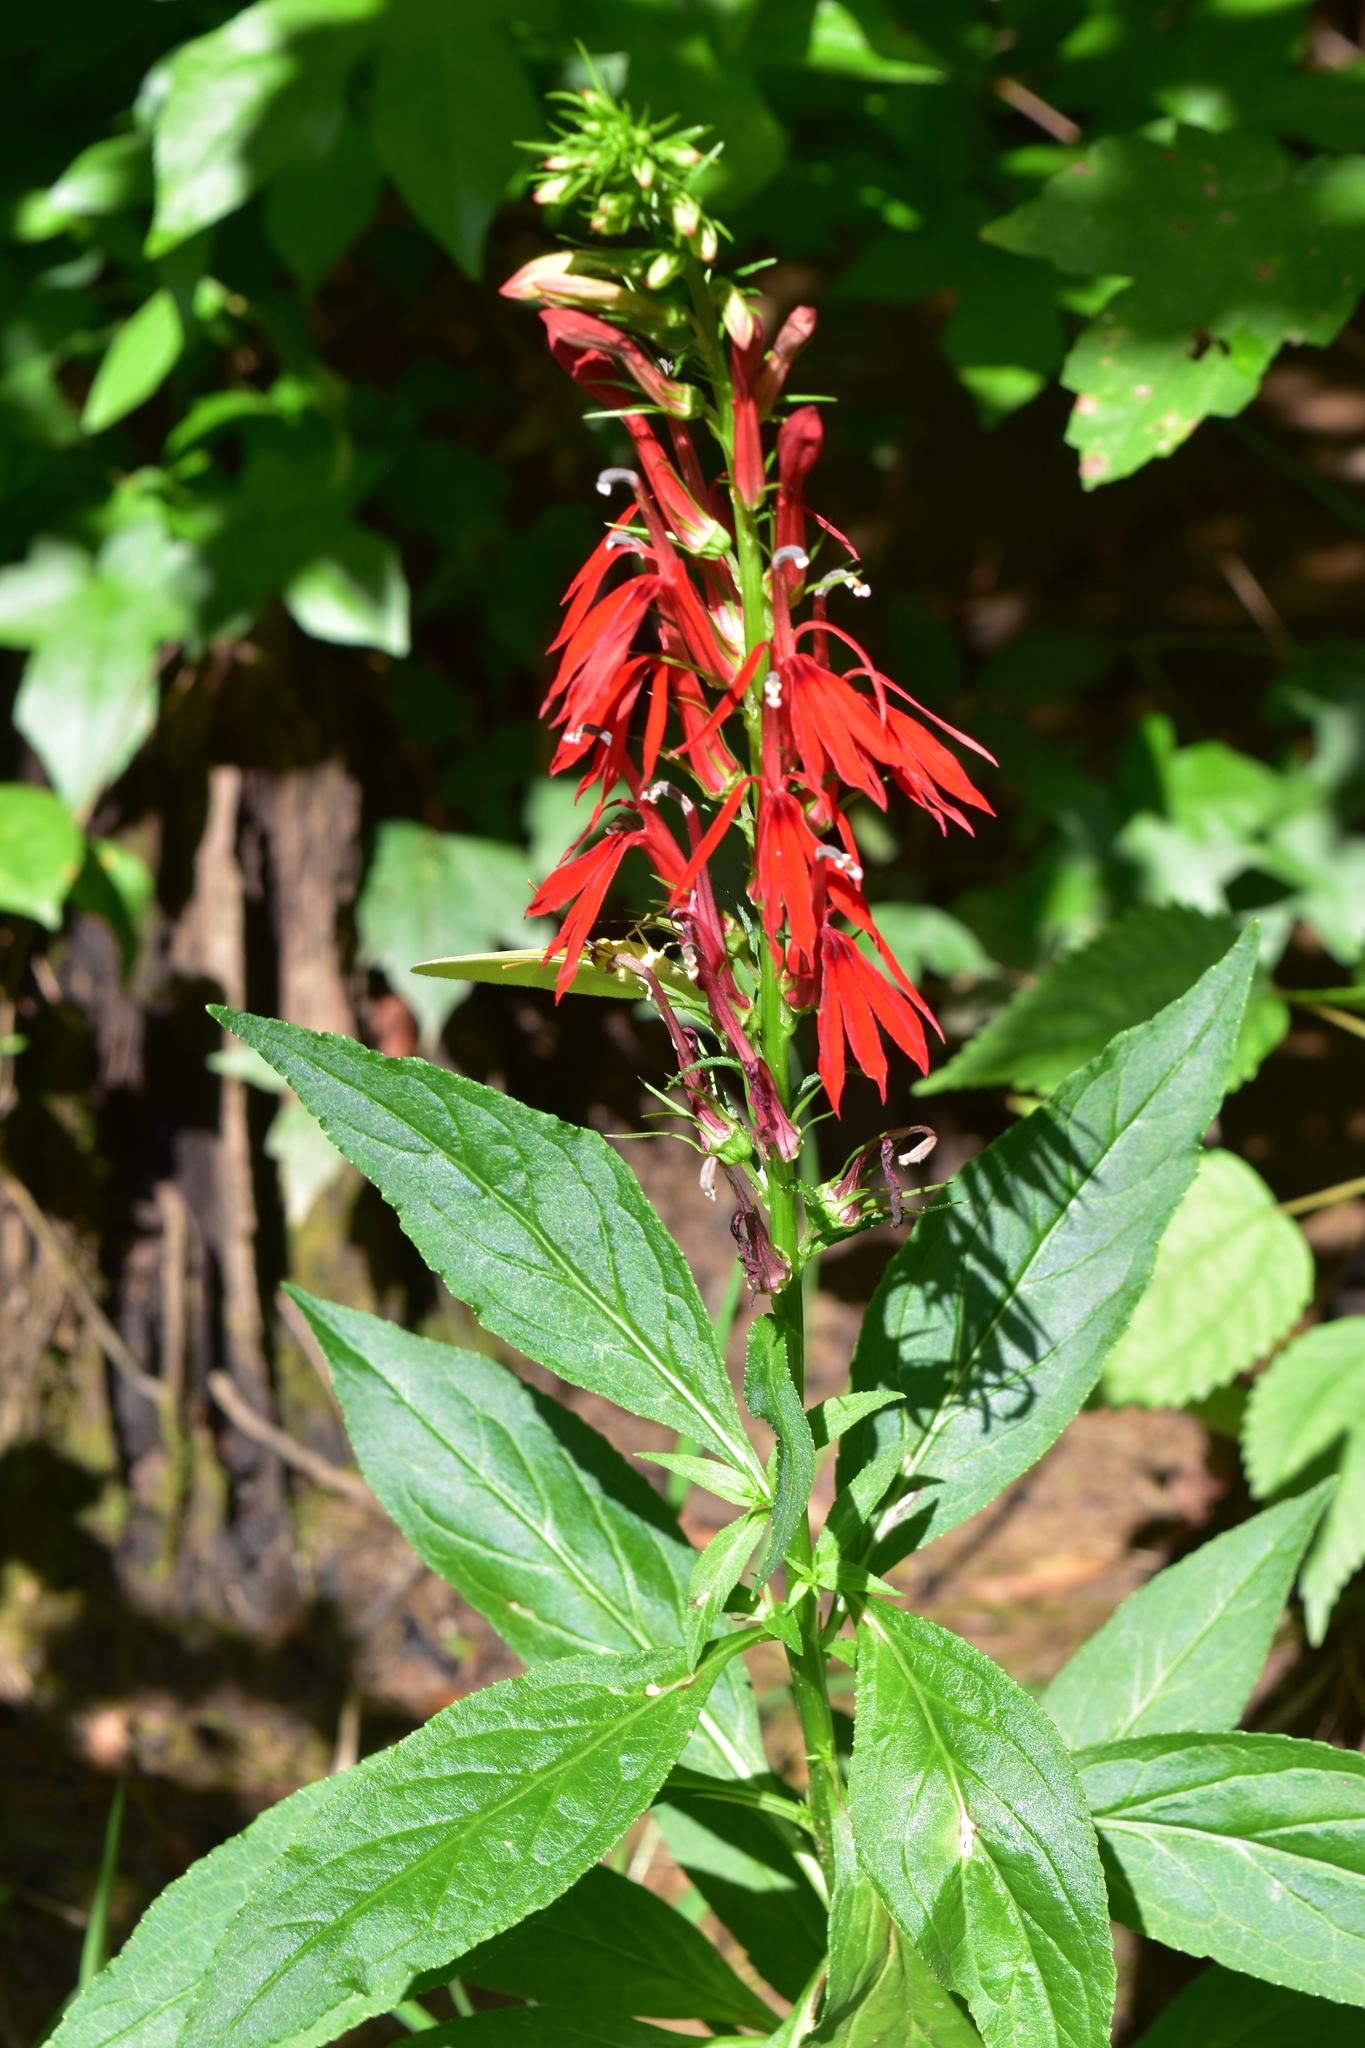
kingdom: Plantae
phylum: Tracheophyta
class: Magnoliopsida
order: Asterales
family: Campanulaceae
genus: Lobelia
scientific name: Lobelia cardinalis
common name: Cardinal flower
